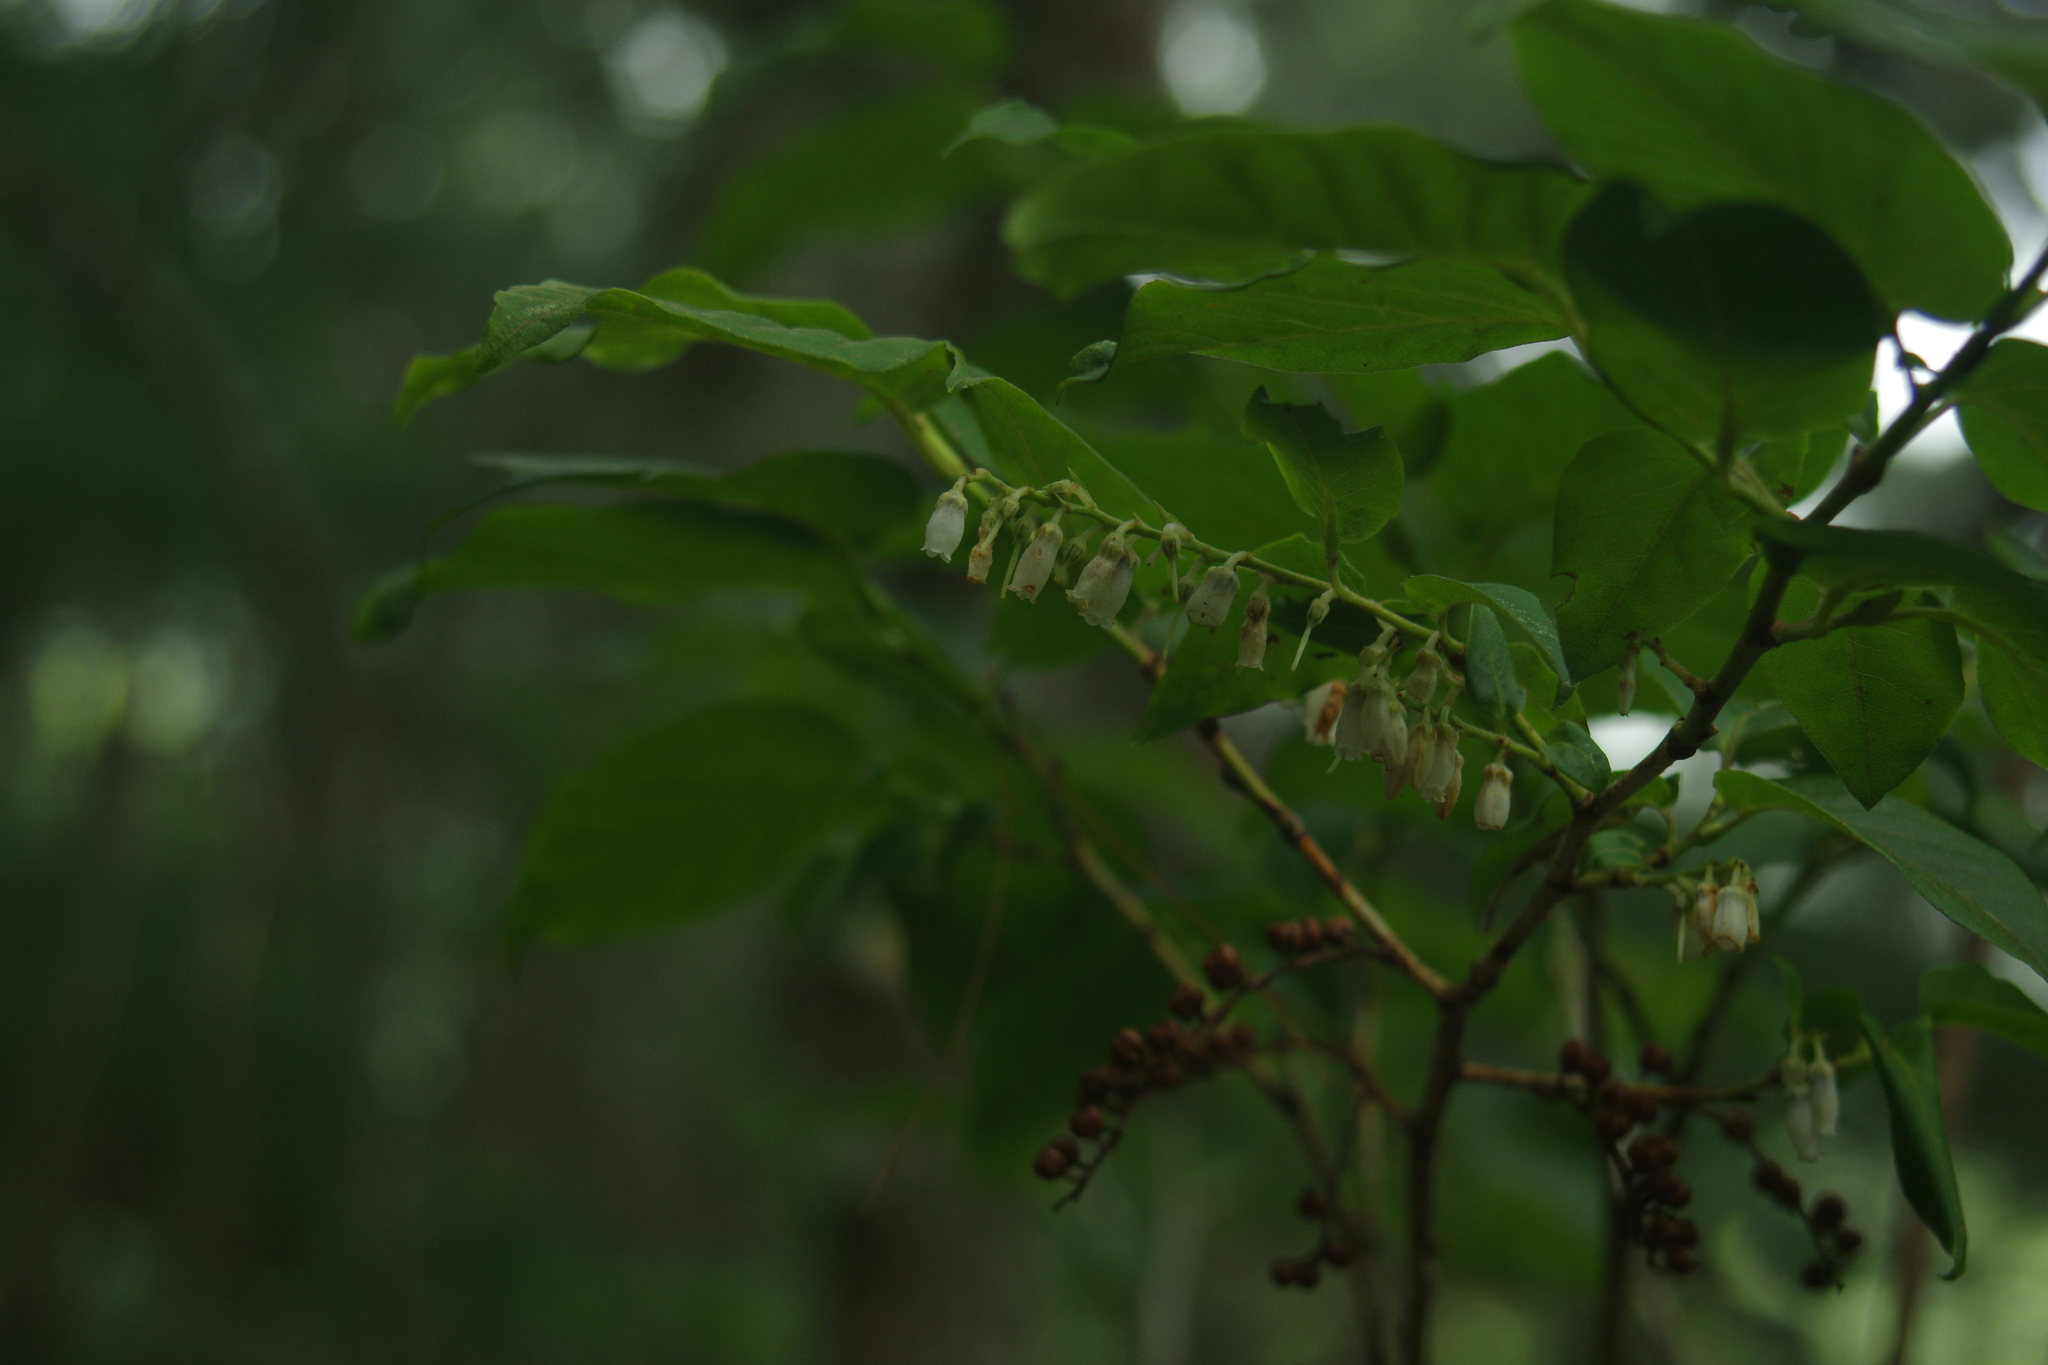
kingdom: Plantae
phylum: Tracheophyta
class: Magnoliopsida
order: Ericales
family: Ericaceae
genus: Lyonia
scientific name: Lyonia ovalifolia
